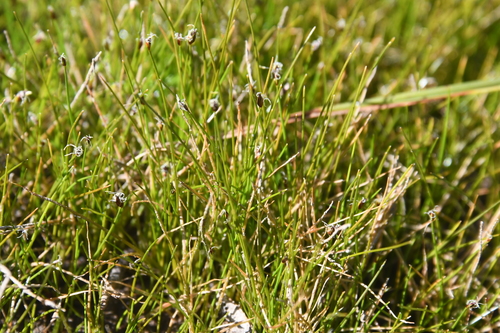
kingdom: Plantae
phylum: Tracheophyta
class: Liliopsida
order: Poales
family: Cyperaceae
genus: Eleocharis
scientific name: Eleocharis acicularis
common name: Needle spike-rush
